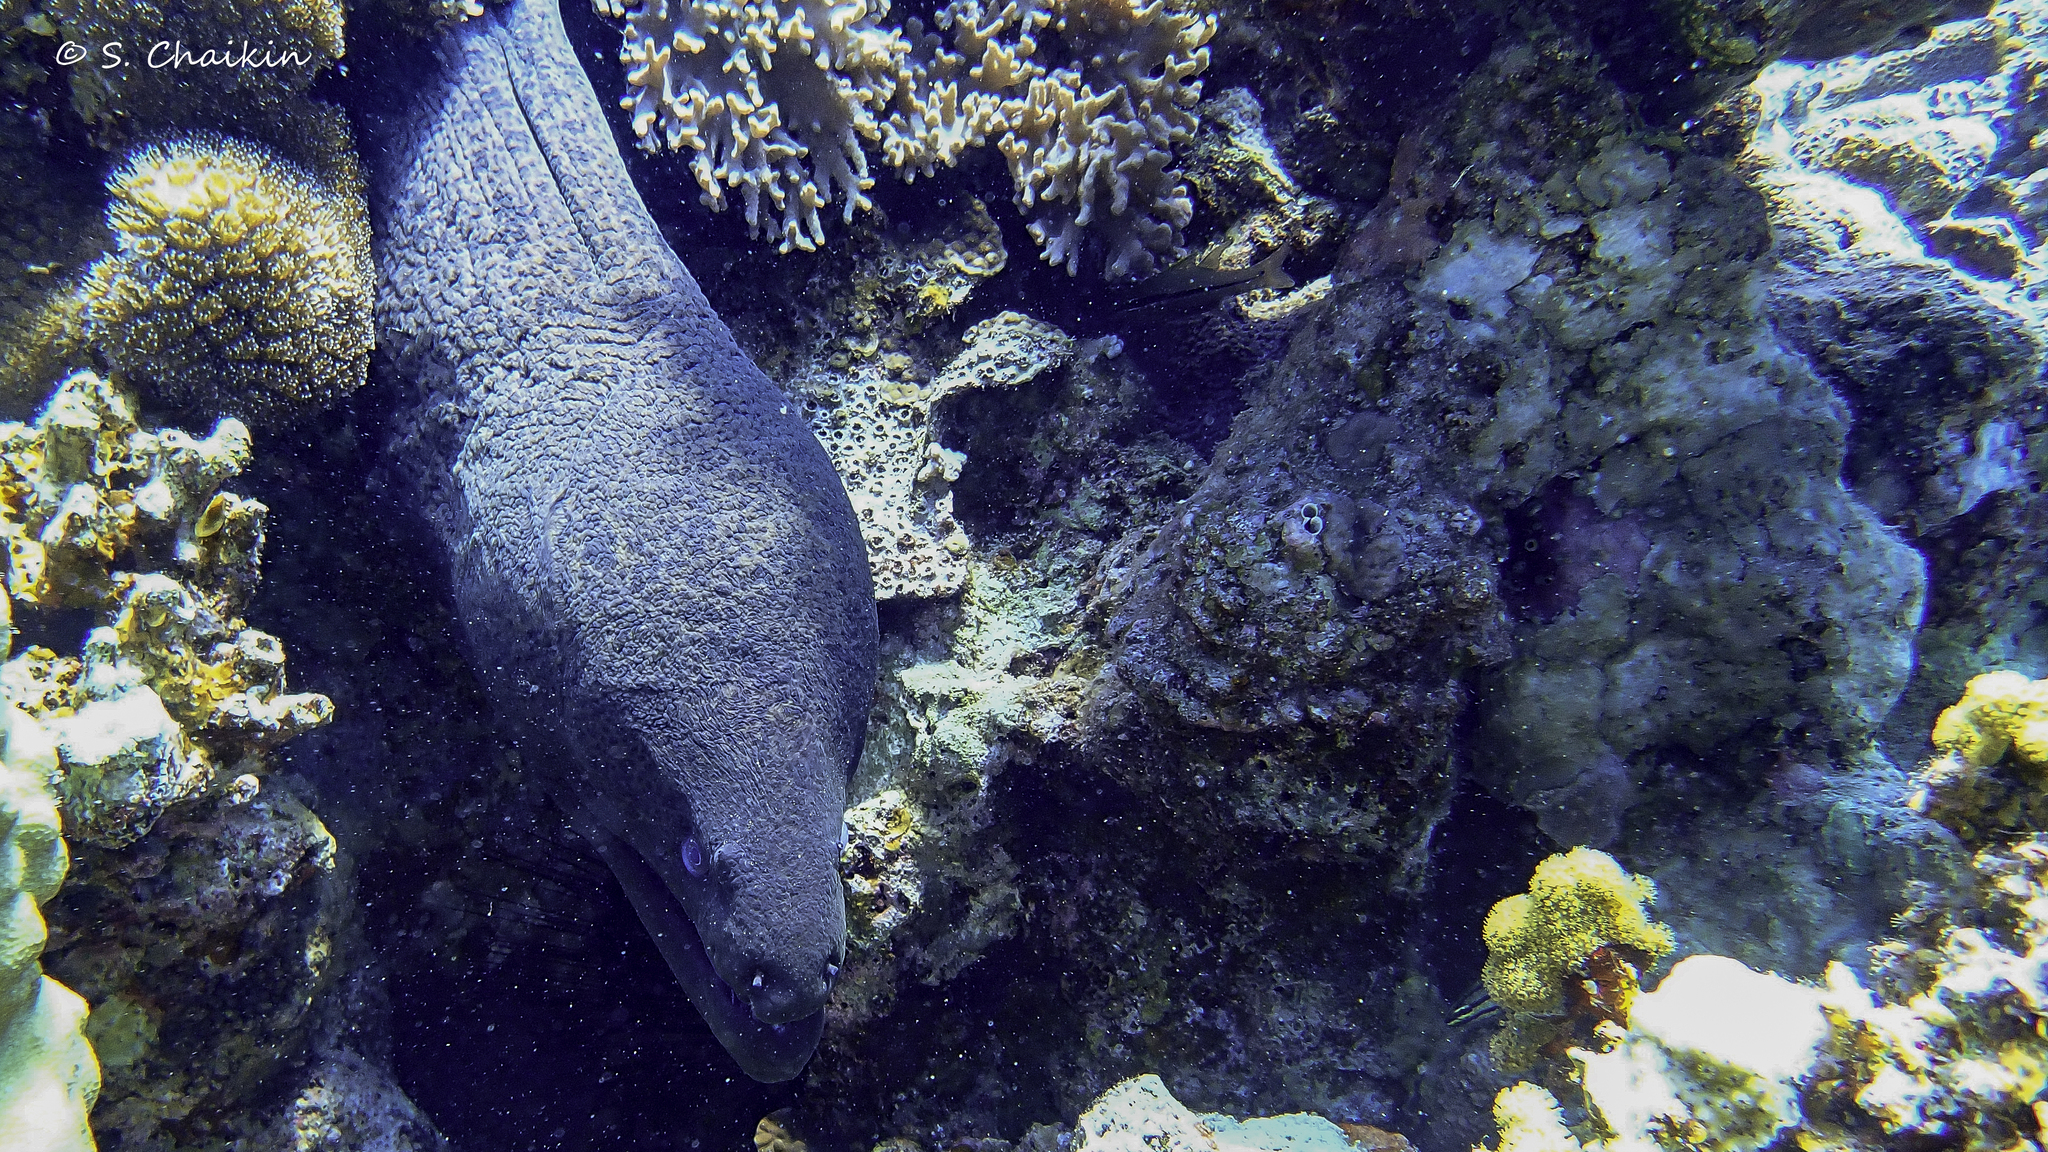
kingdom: Animalia
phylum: Chordata
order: Anguilliformes
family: Muraenidae
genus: Gymnothorax
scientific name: Gymnothorax javanicus
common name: Giant moray
